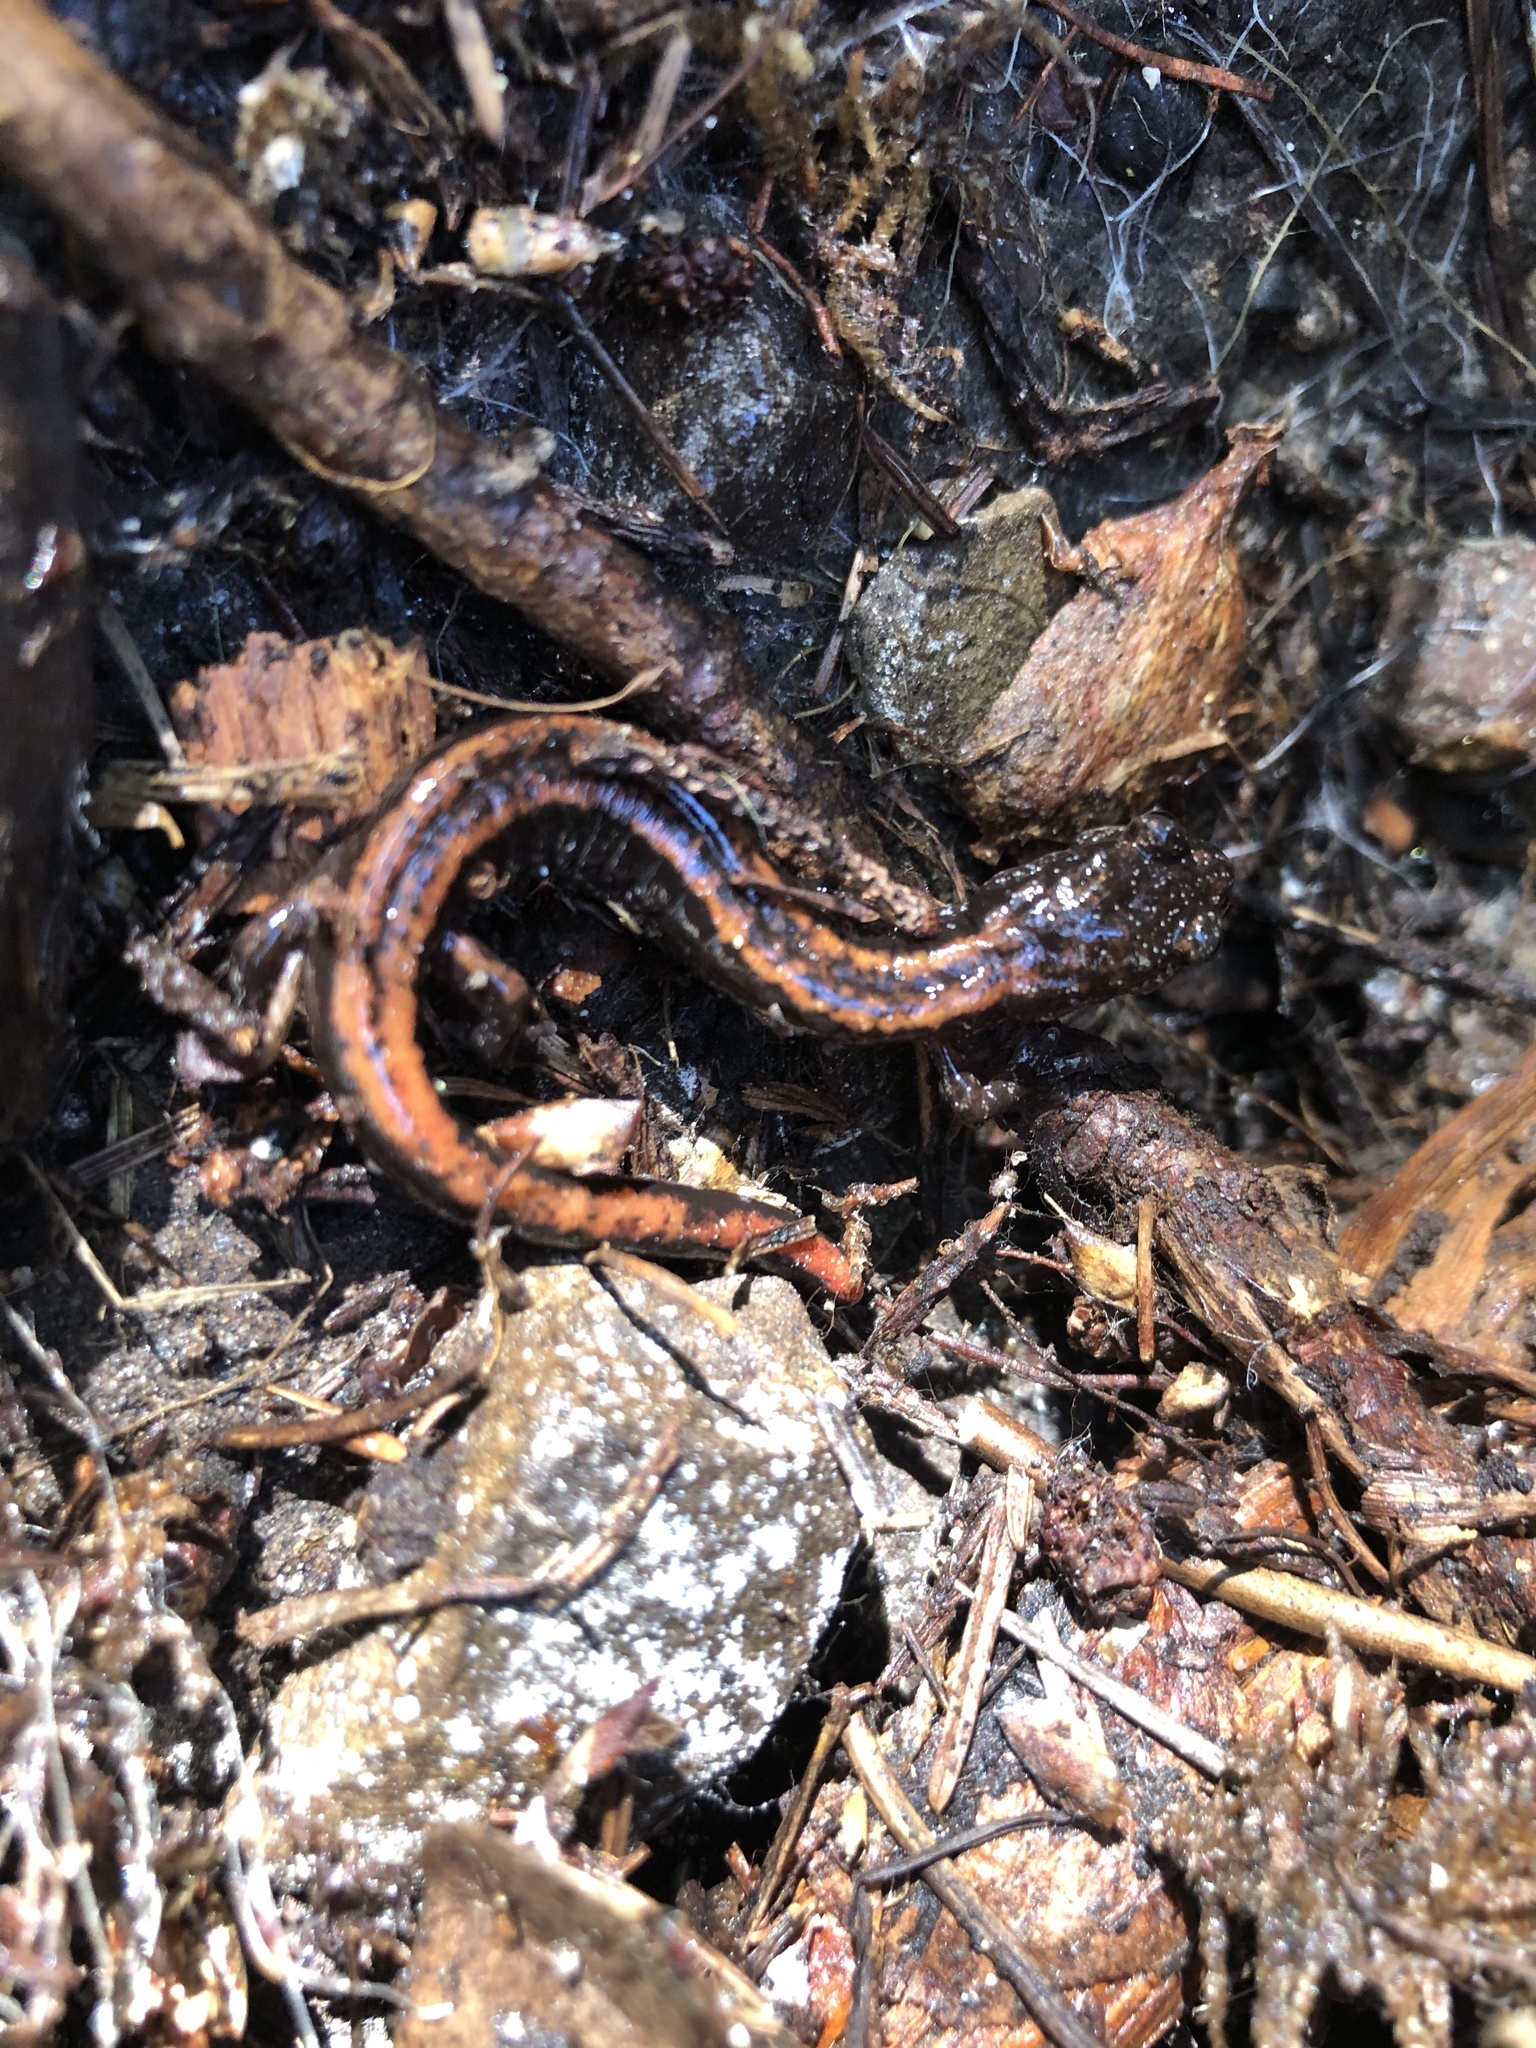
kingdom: Animalia
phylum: Chordata
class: Amphibia
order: Caudata
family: Plethodontidae
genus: Plethodon
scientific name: Plethodon vehiculum
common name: Western red-backed salamander
